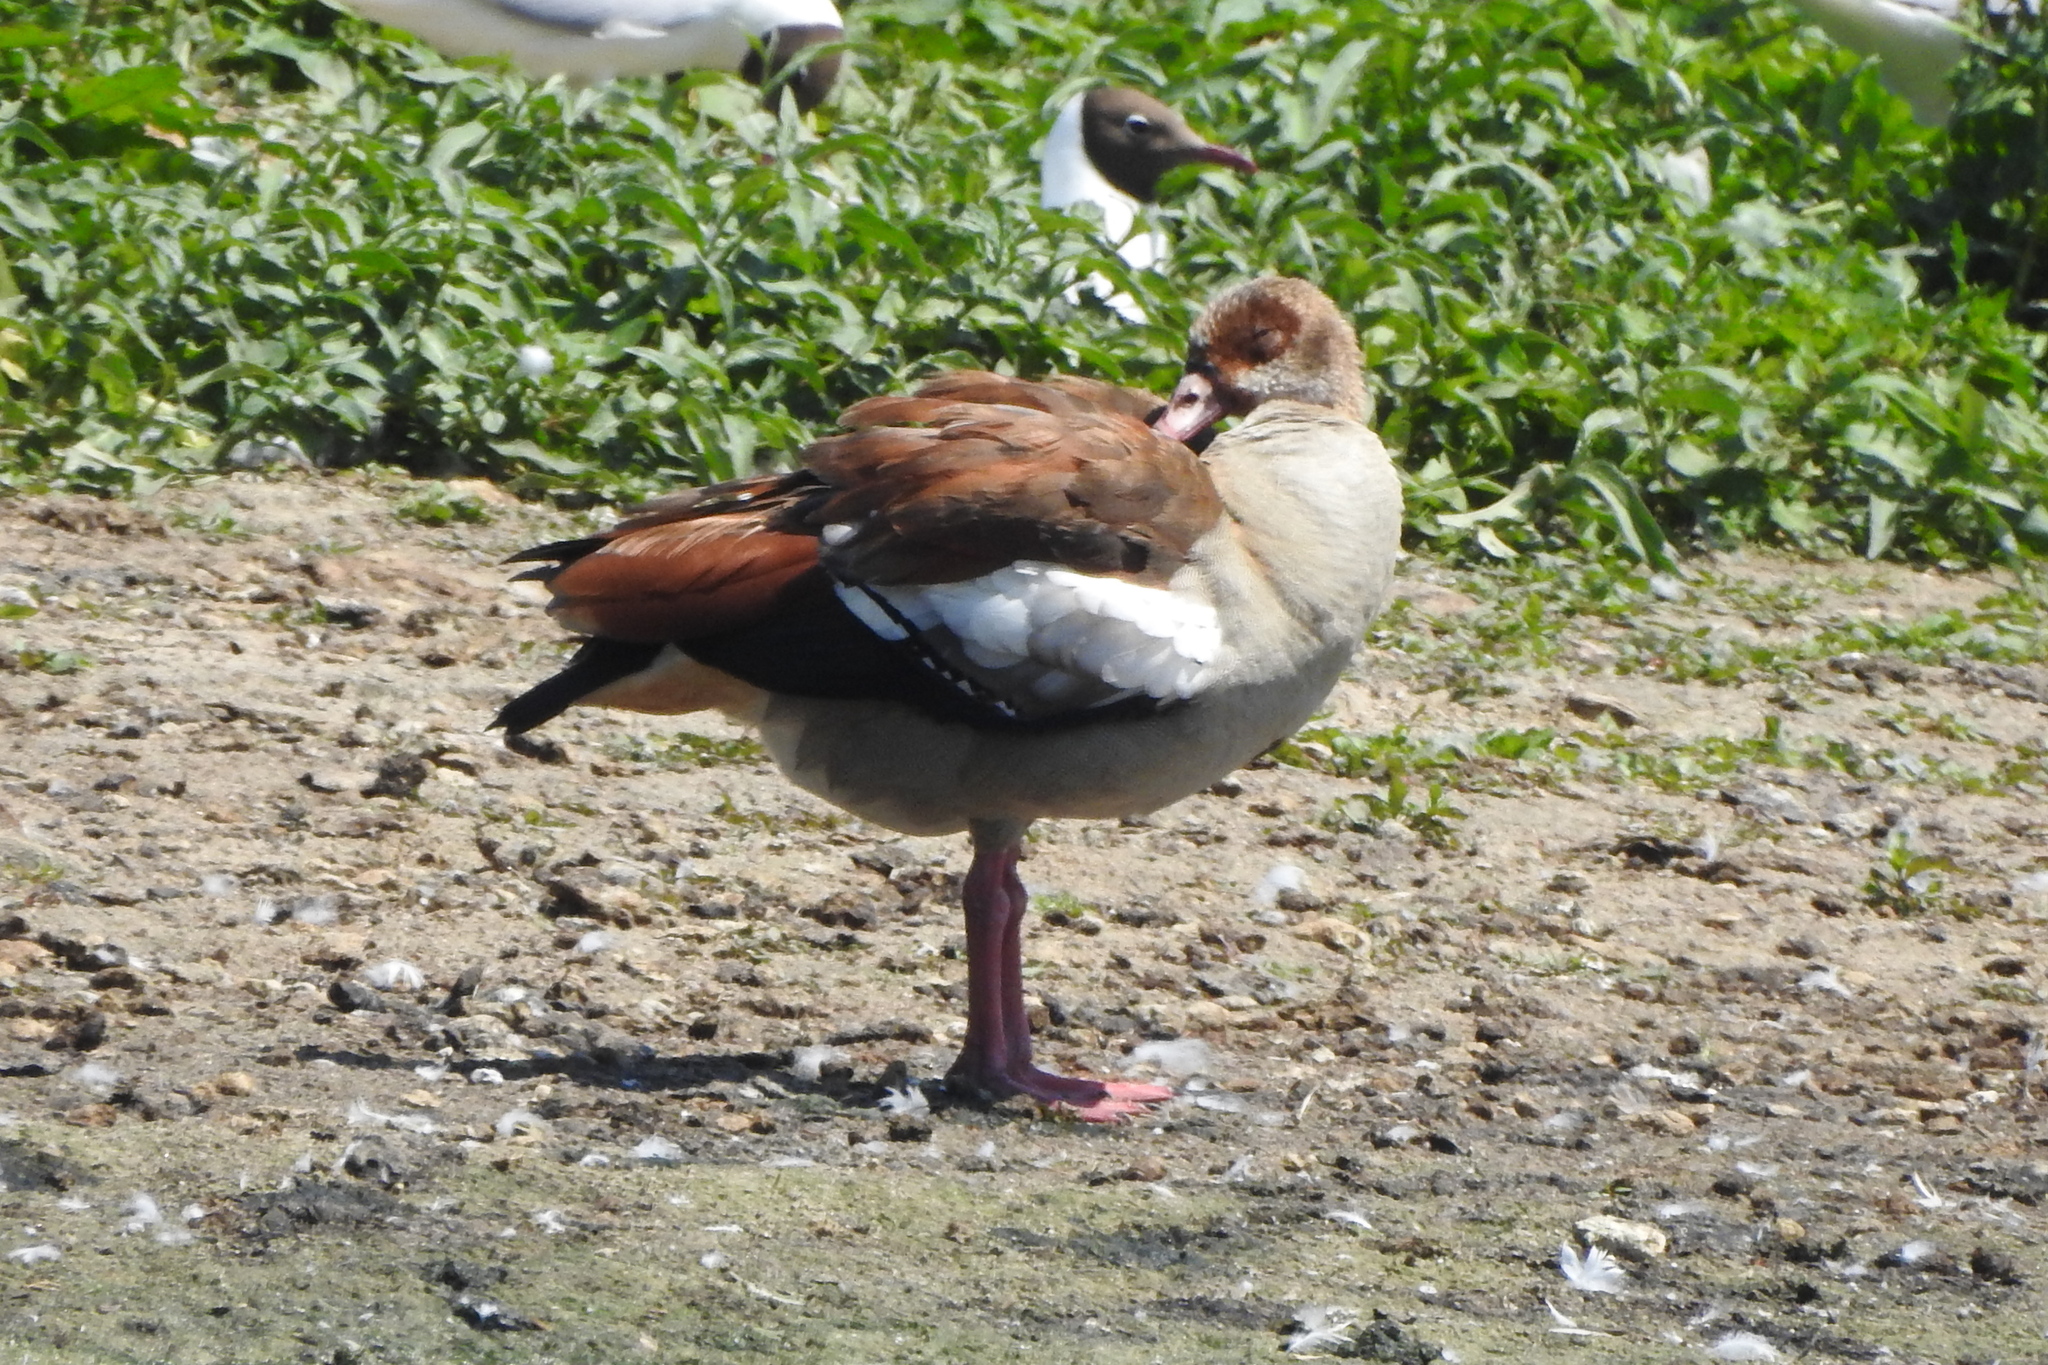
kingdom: Animalia
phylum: Chordata
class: Aves
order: Anseriformes
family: Anatidae
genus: Alopochen
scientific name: Alopochen aegyptiaca
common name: Egyptian goose
